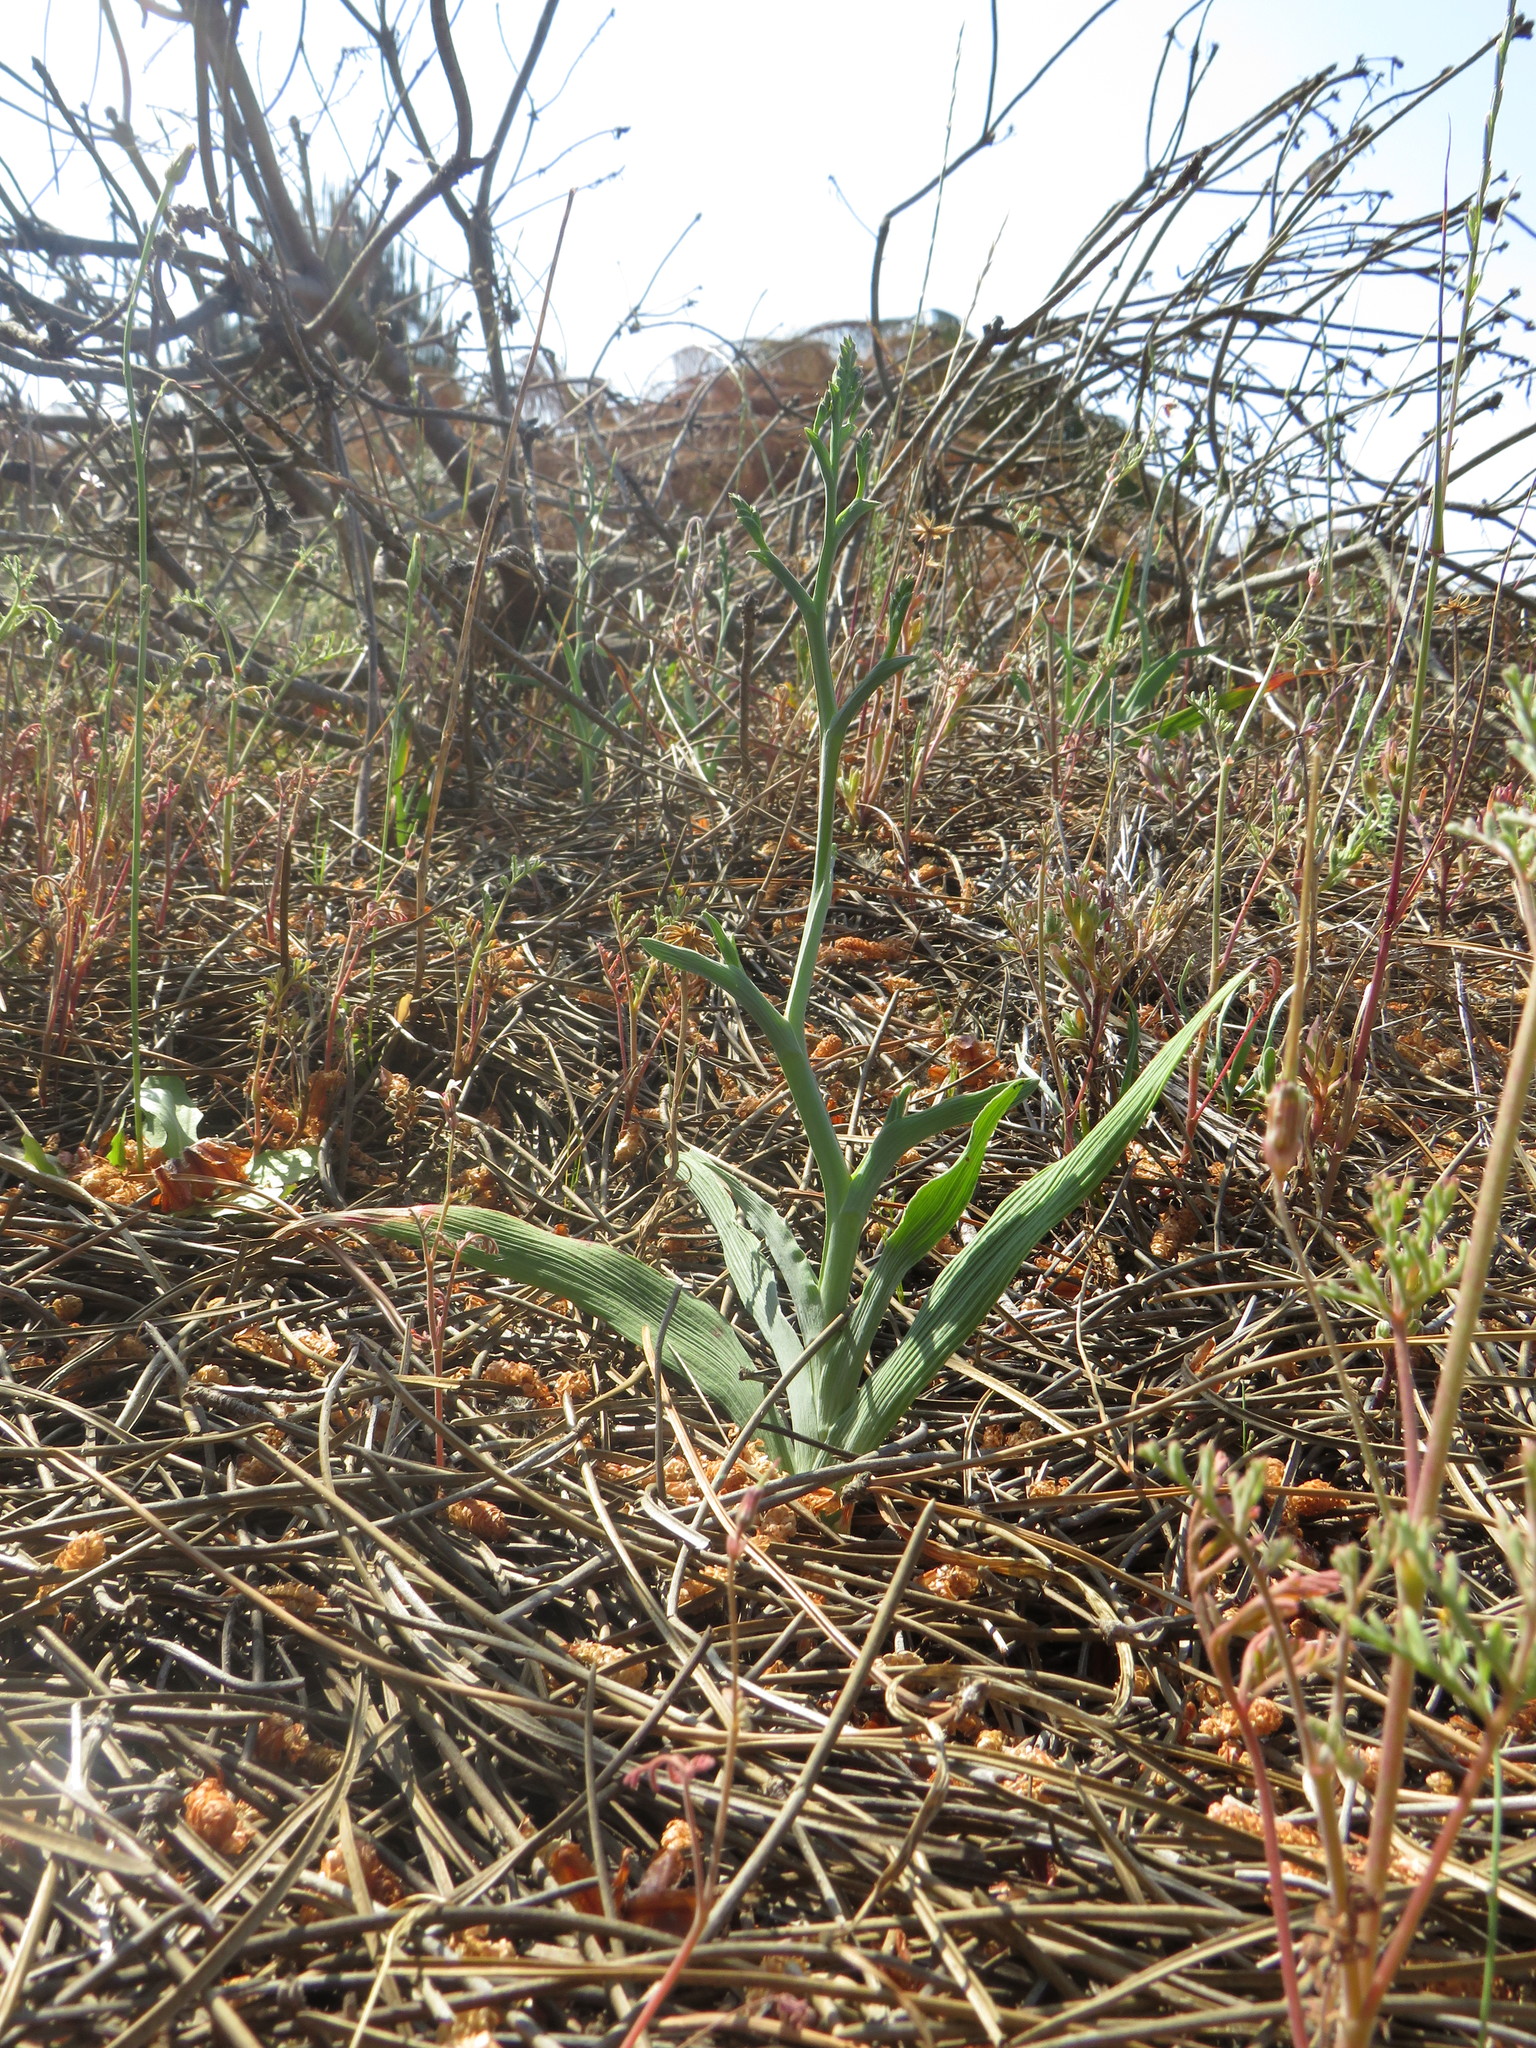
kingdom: Plantae
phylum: Tracheophyta
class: Liliopsida
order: Asparagales
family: Iridaceae
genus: Lapeirousia
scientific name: Lapeirousia anceps
